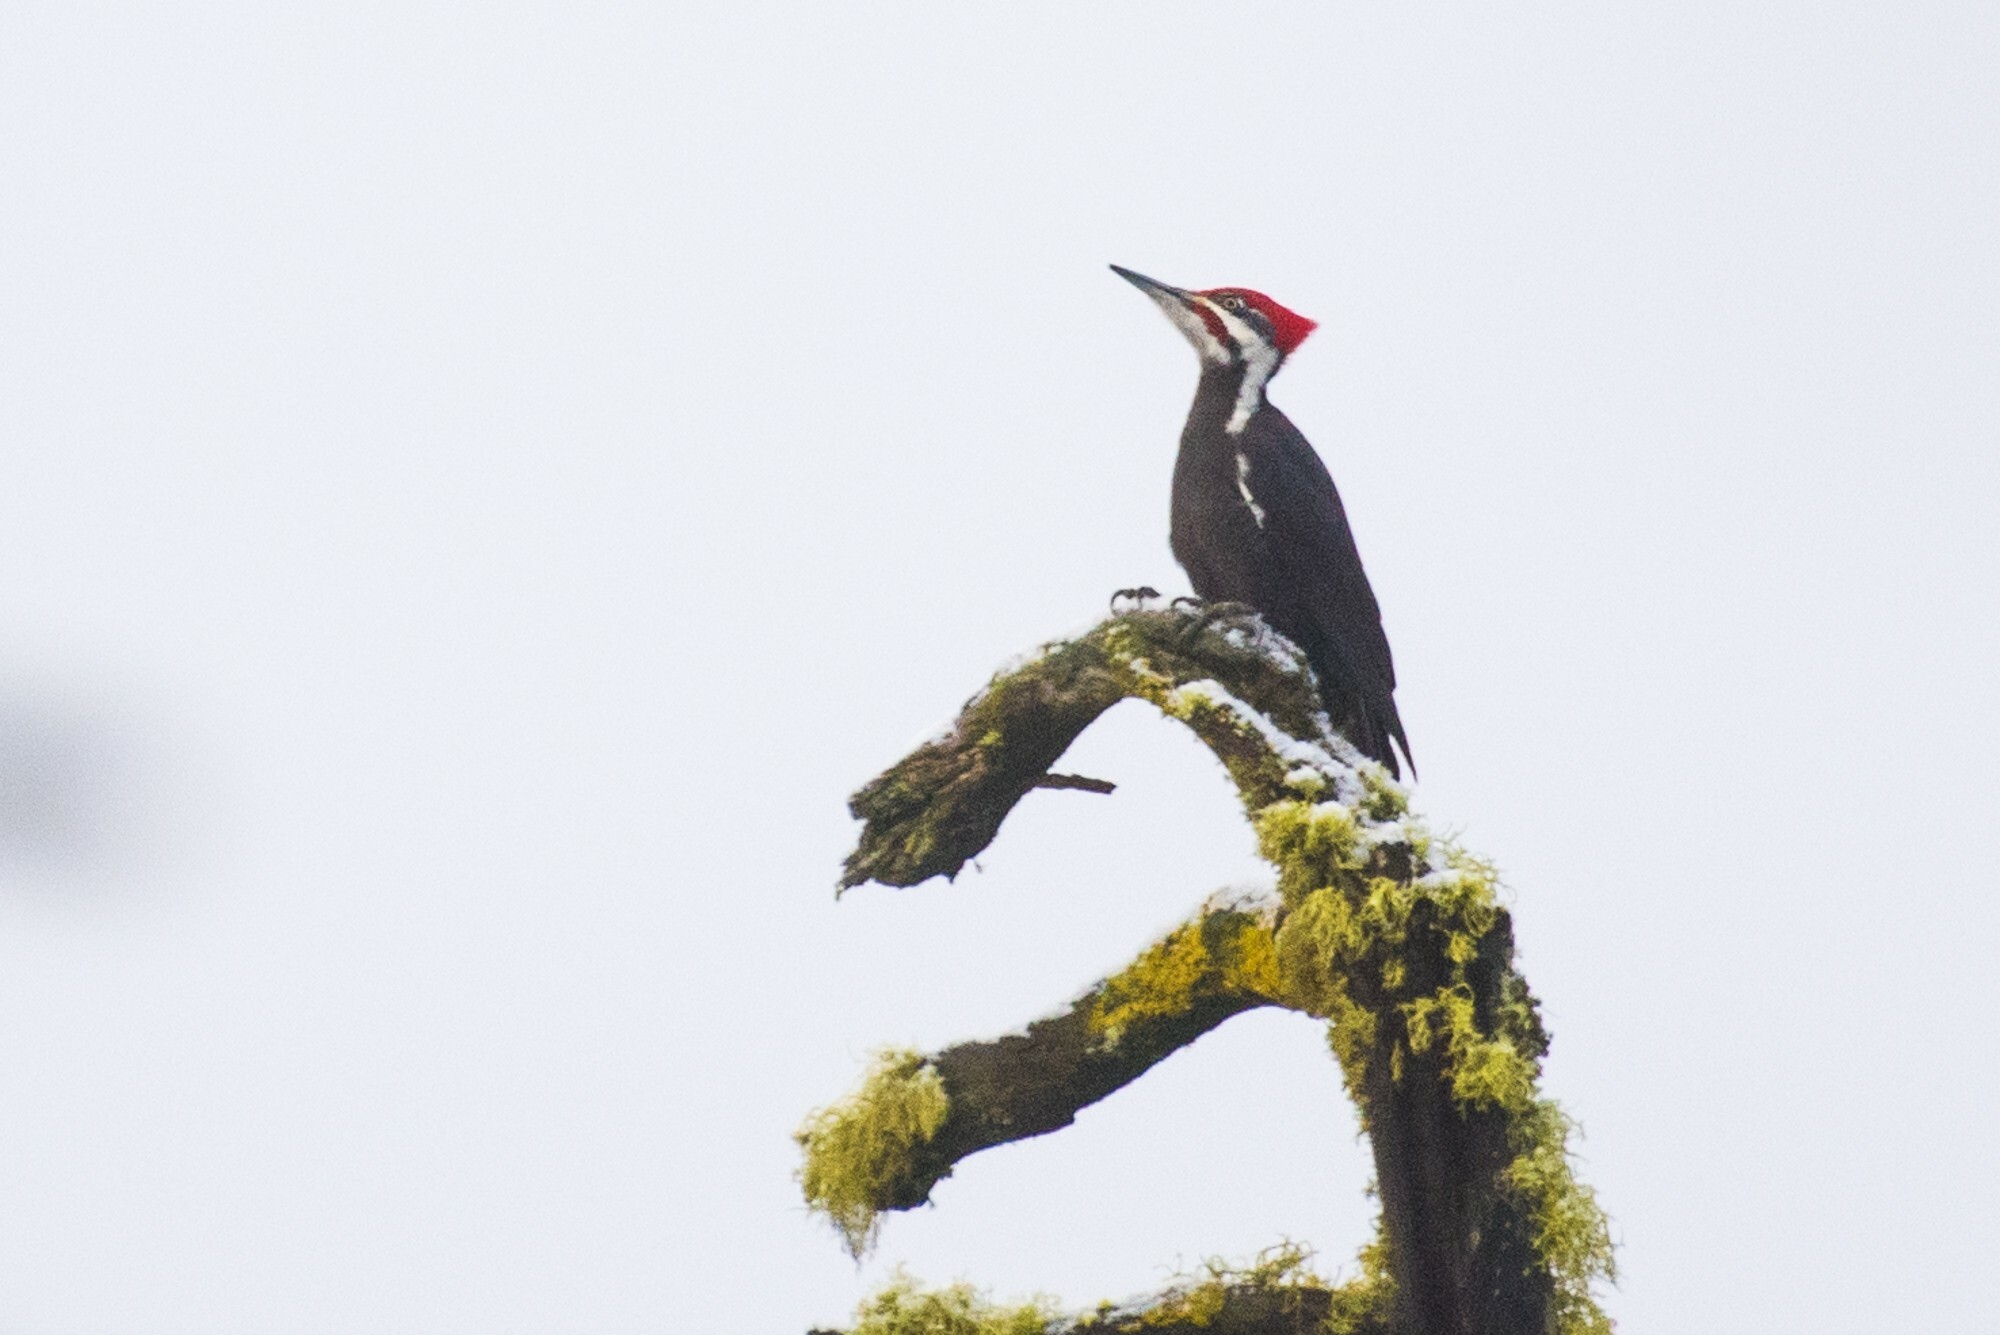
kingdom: Animalia
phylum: Chordata
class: Aves
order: Piciformes
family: Picidae
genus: Dryocopus
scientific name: Dryocopus pileatus
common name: Pileated woodpecker
